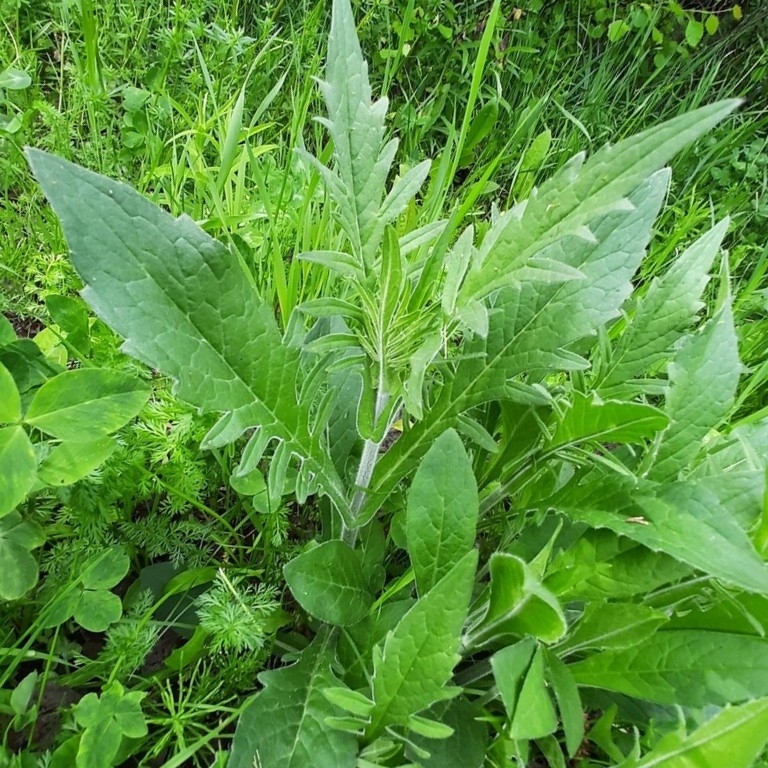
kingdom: Plantae
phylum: Tracheophyta
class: Magnoliopsida
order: Dipsacales
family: Caprifoliaceae
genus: Knautia
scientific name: Knautia arvensis
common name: Field scabiosa
